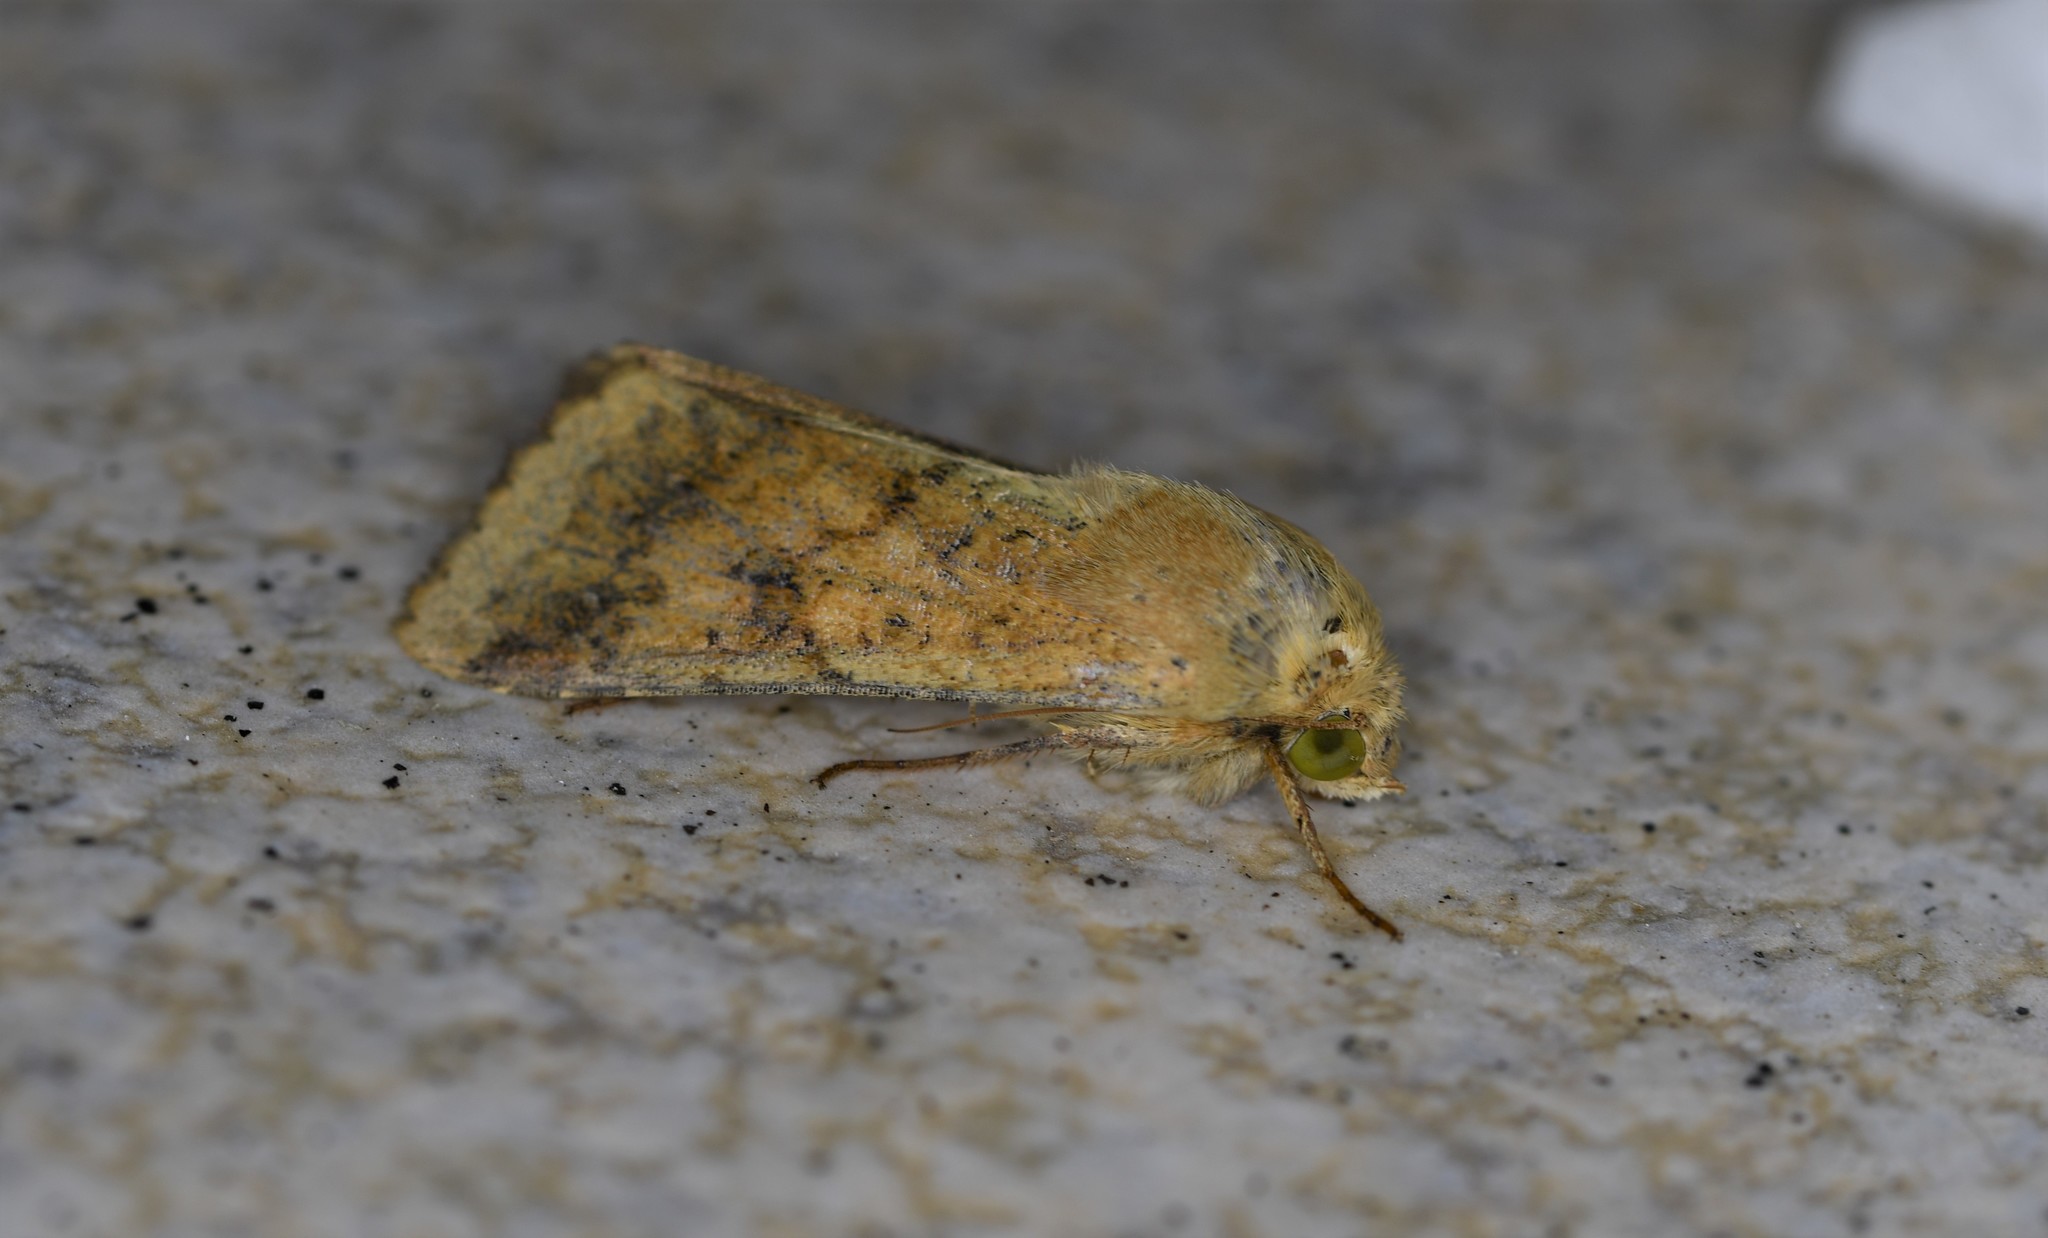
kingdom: Animalia
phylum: Arthropoda
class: Insecta
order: Lepidoptera
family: Noctuidae
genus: Helicoverpa
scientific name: Helicoverpa armigera
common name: Cotton bollworm
